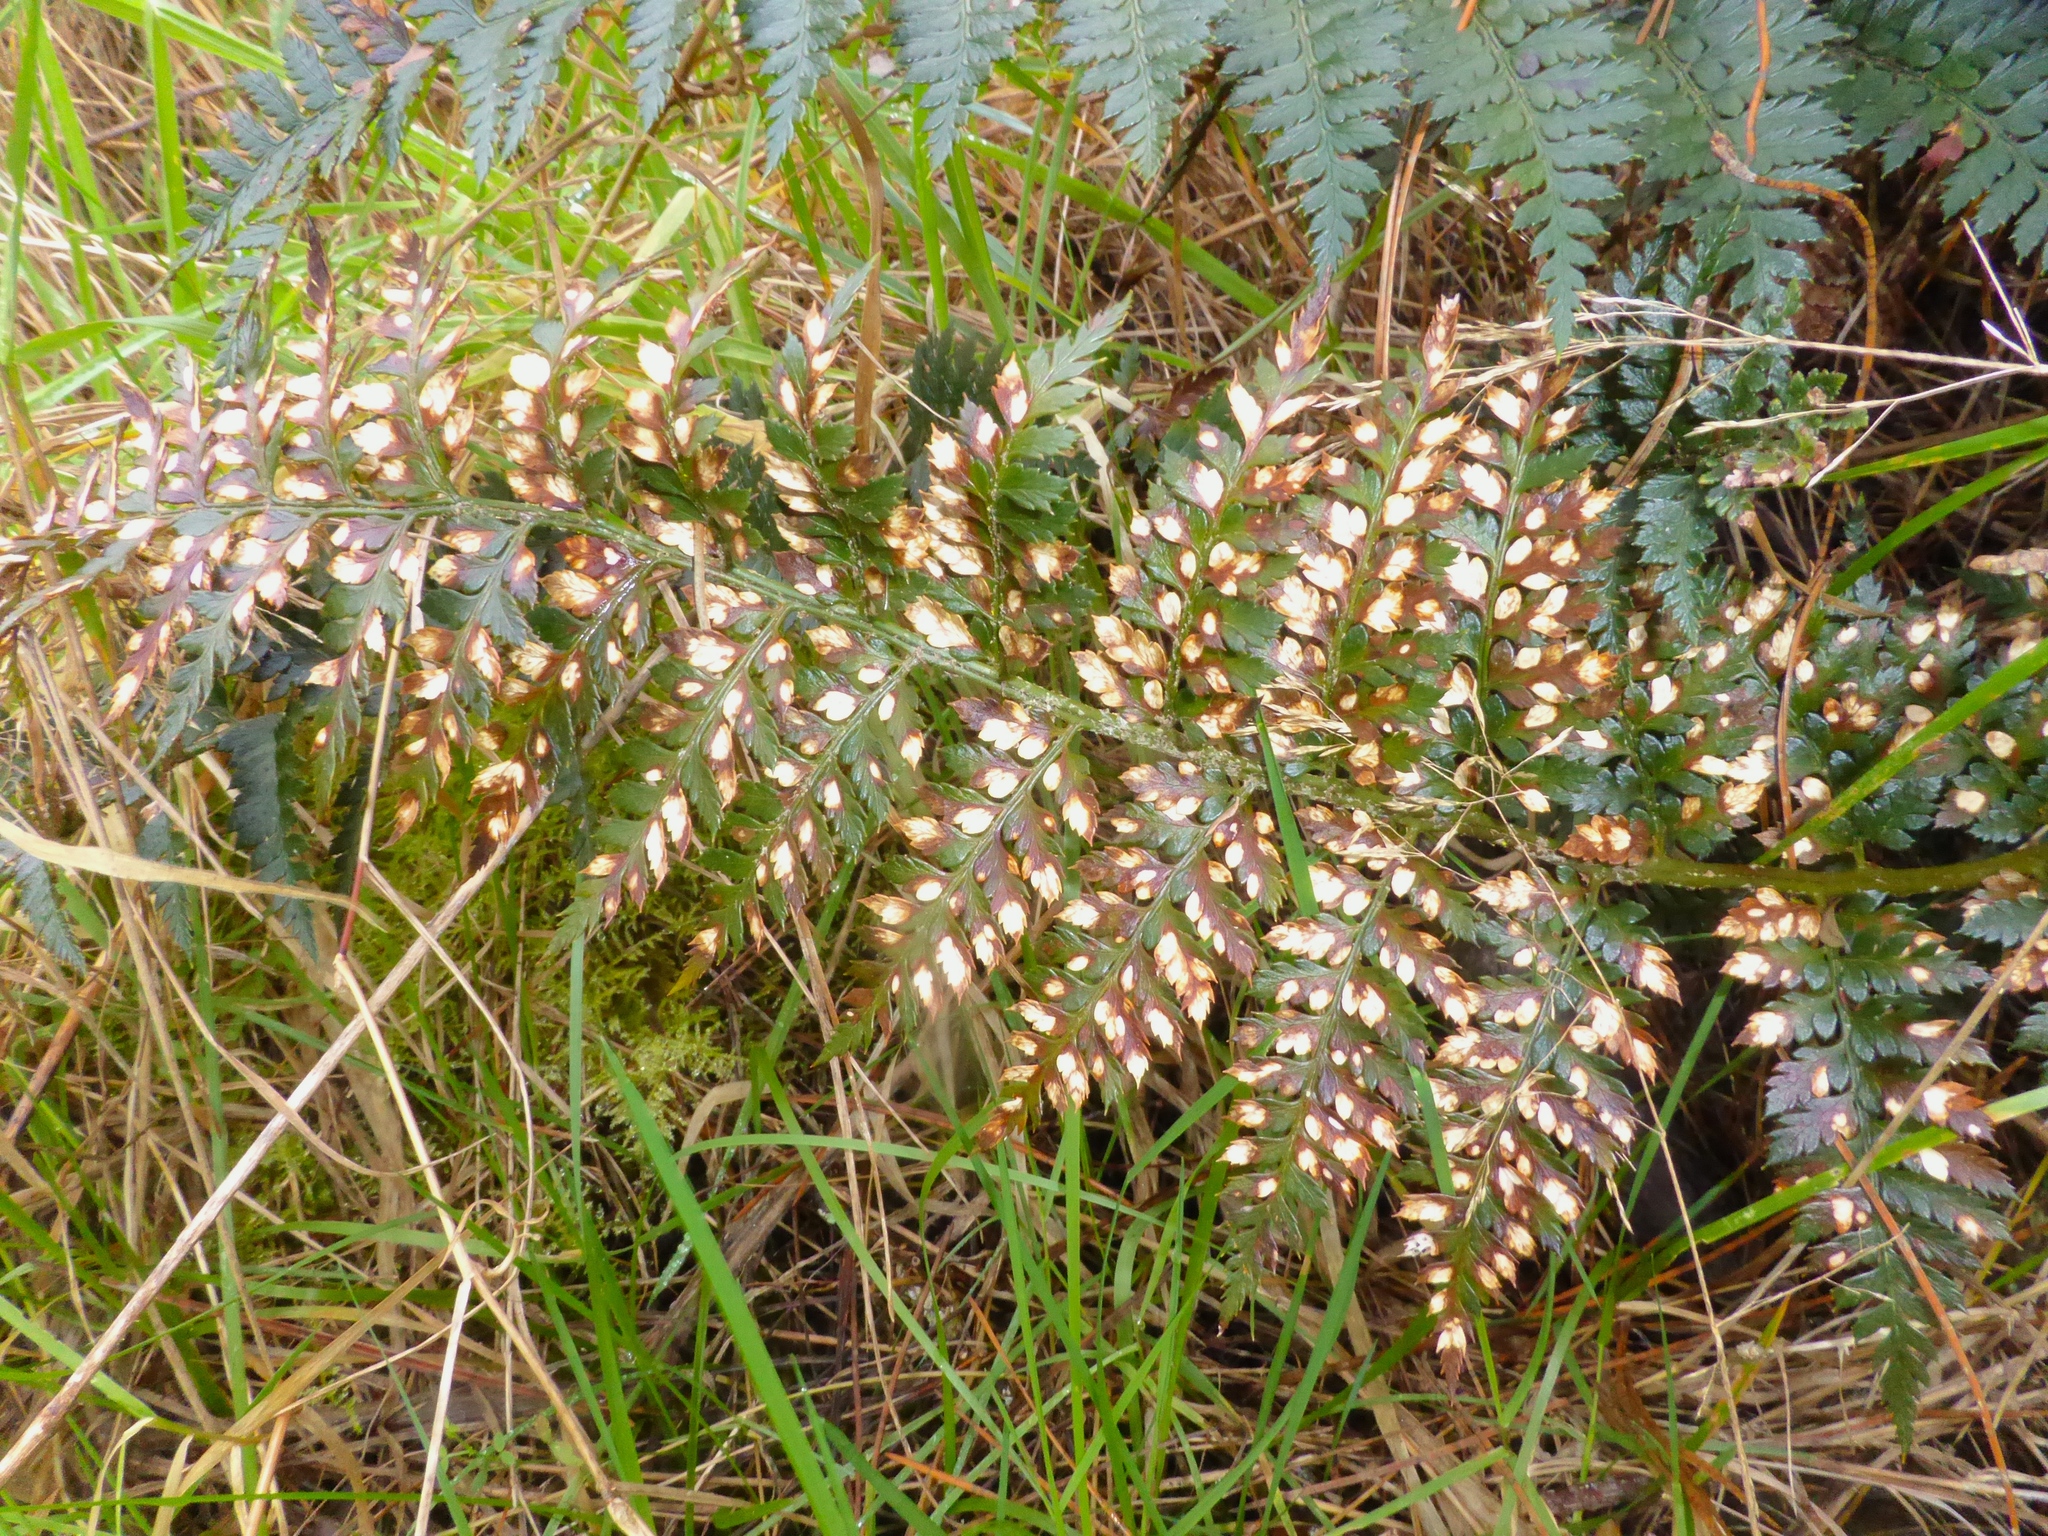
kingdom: Plantae
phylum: Tracheophyta
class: Polypodiopsida
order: Polypodiales
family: Dryopteridaceae
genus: Polystichum
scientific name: Polystichum oculatum
